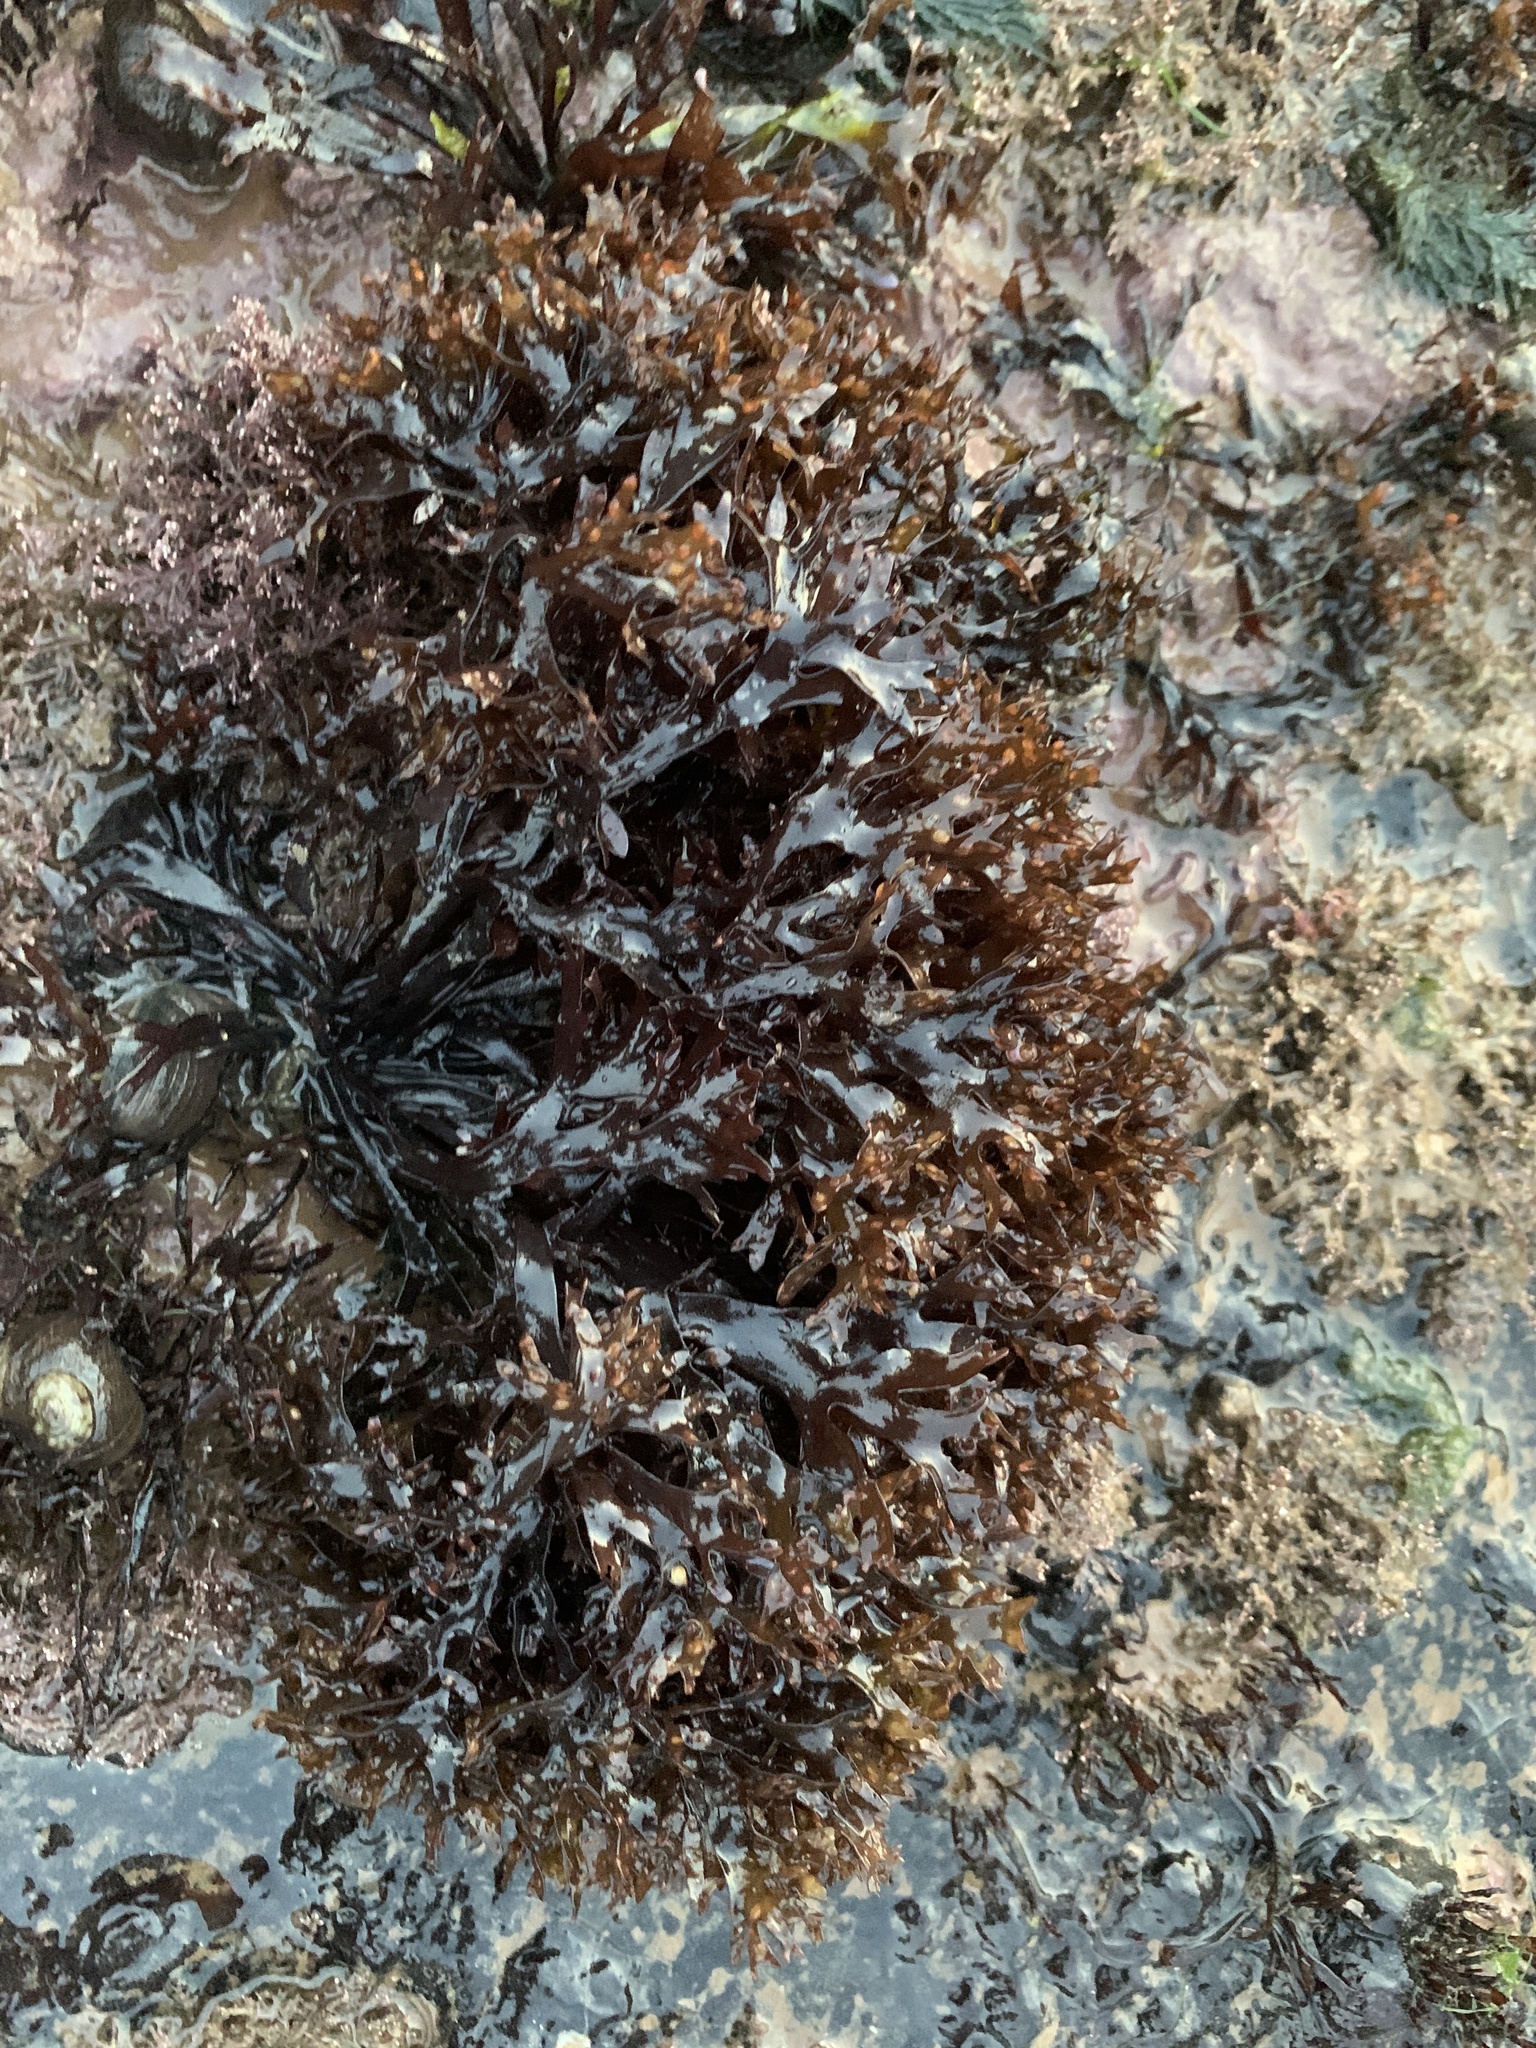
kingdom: Plantae
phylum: Rhodophyta
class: Florideophyceae
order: Gigartinales
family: Gigartinaceae
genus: Chondrus
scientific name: Chondrus crispus
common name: Carrageen
